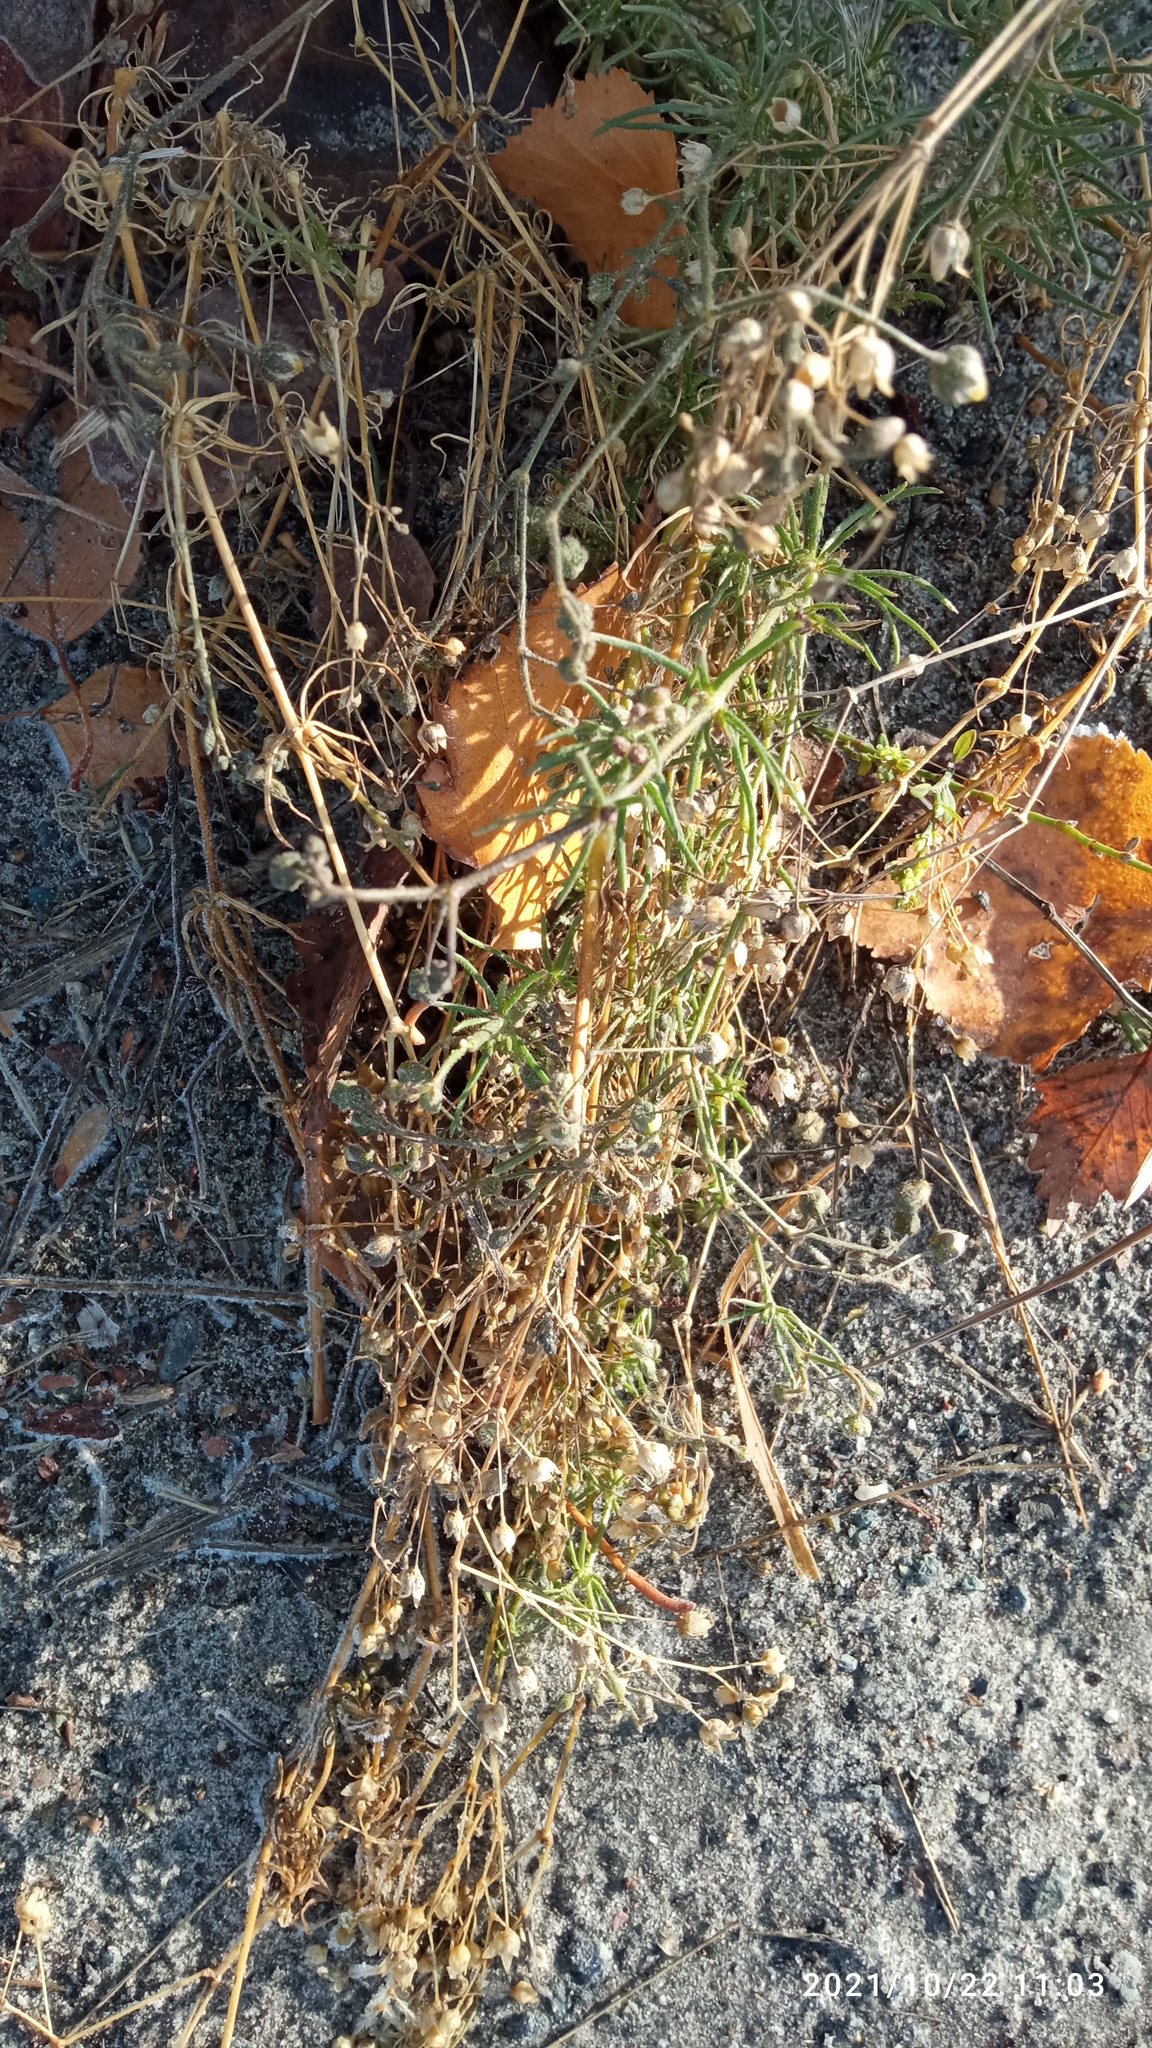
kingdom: Plantae
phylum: Tracheophyta
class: Magnoliopsida
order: Caryophyllales
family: Caryophyllaceae
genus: Spergula
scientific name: Spergula arvensis
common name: Corn spurrey
